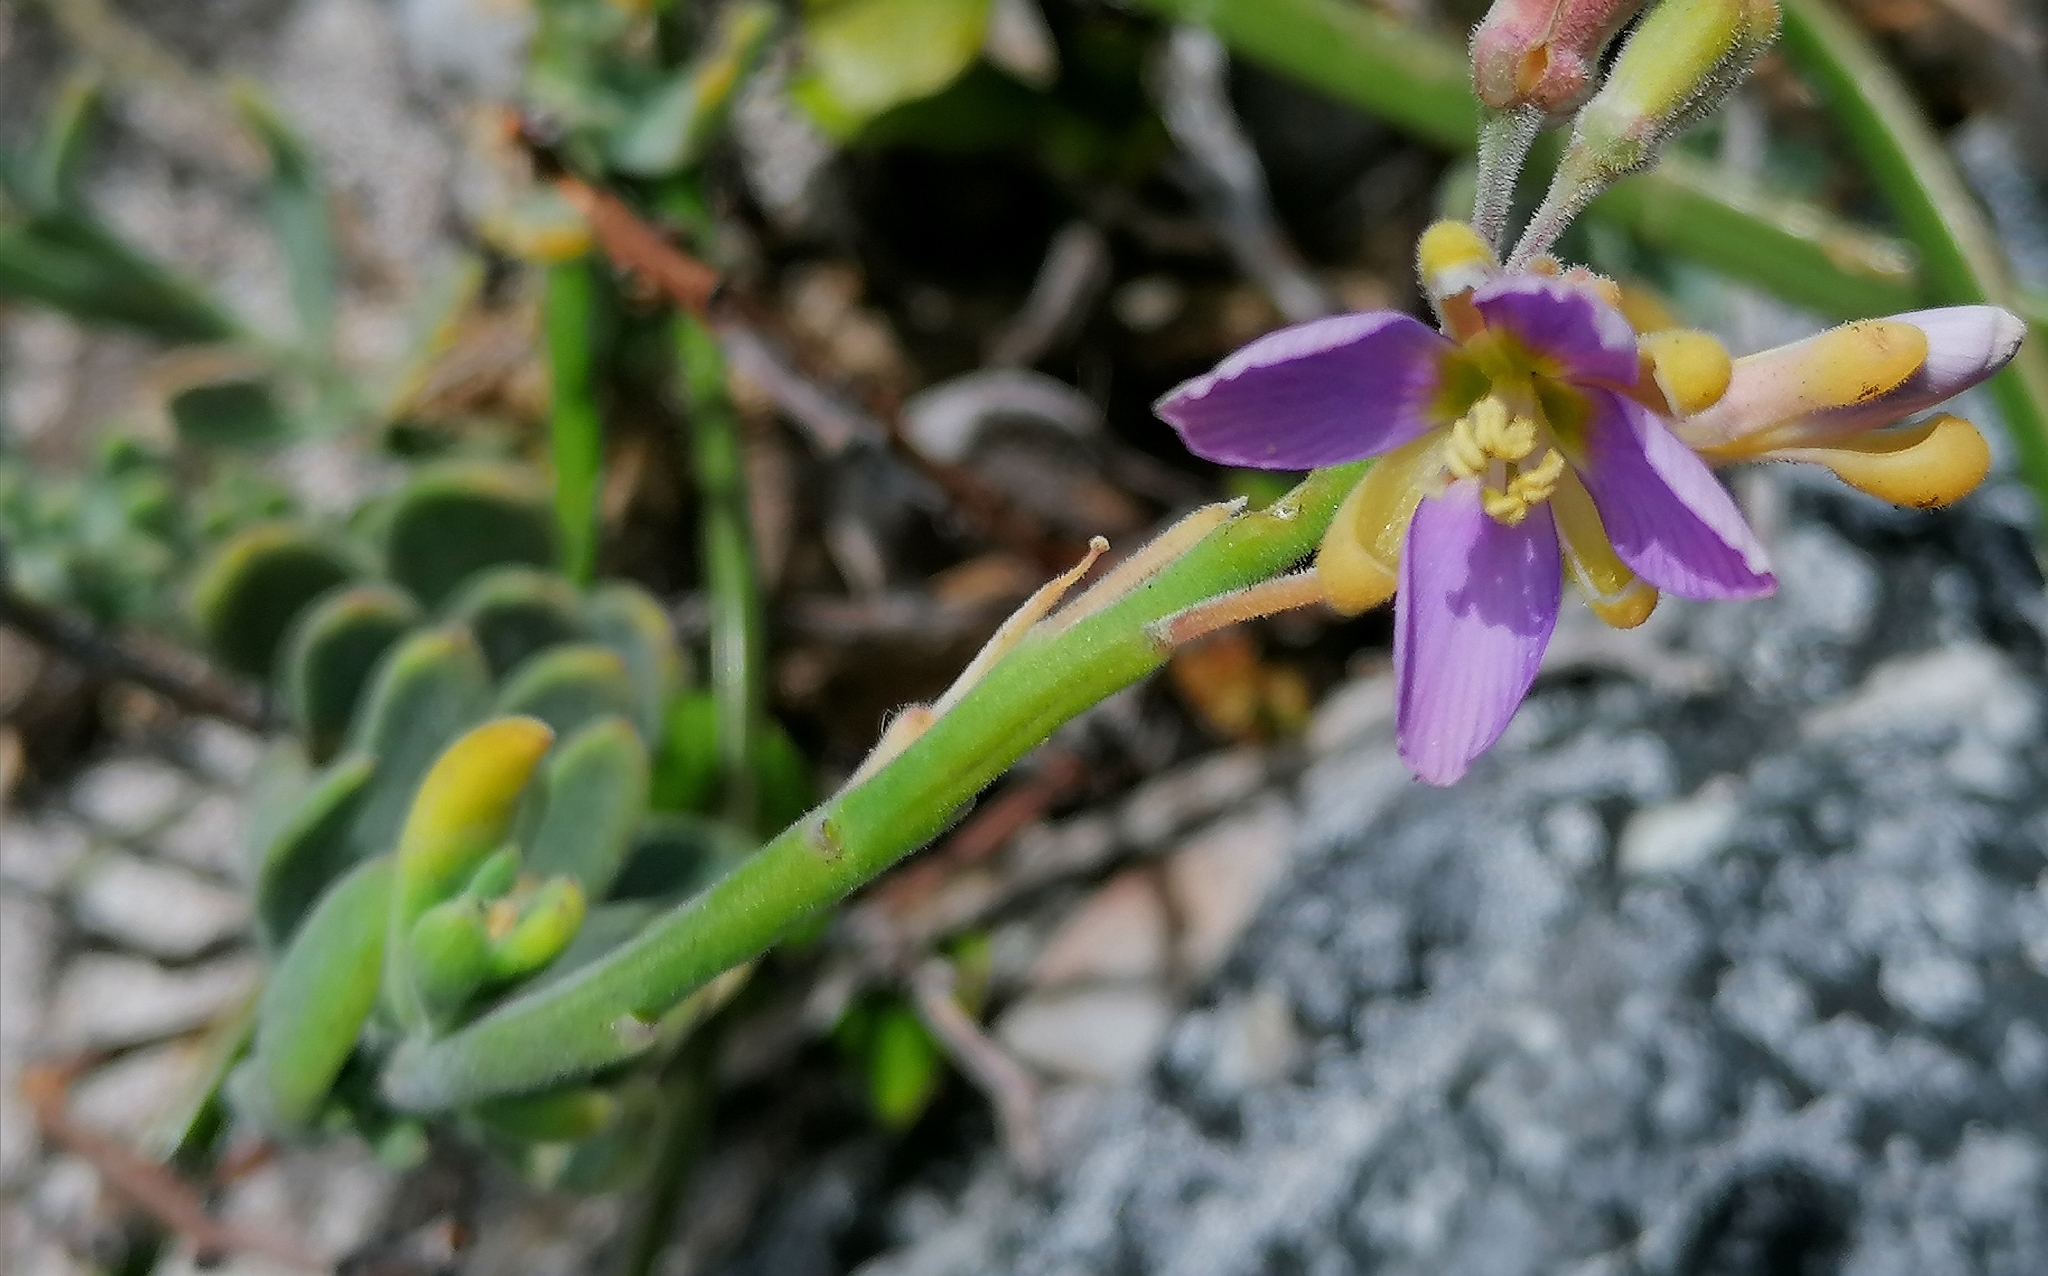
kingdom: Plantae
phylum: Tracheophyta
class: Magnoliopsida
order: Brassicales
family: Brassicaceae
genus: Heliophila
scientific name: Heliophila cinerea
